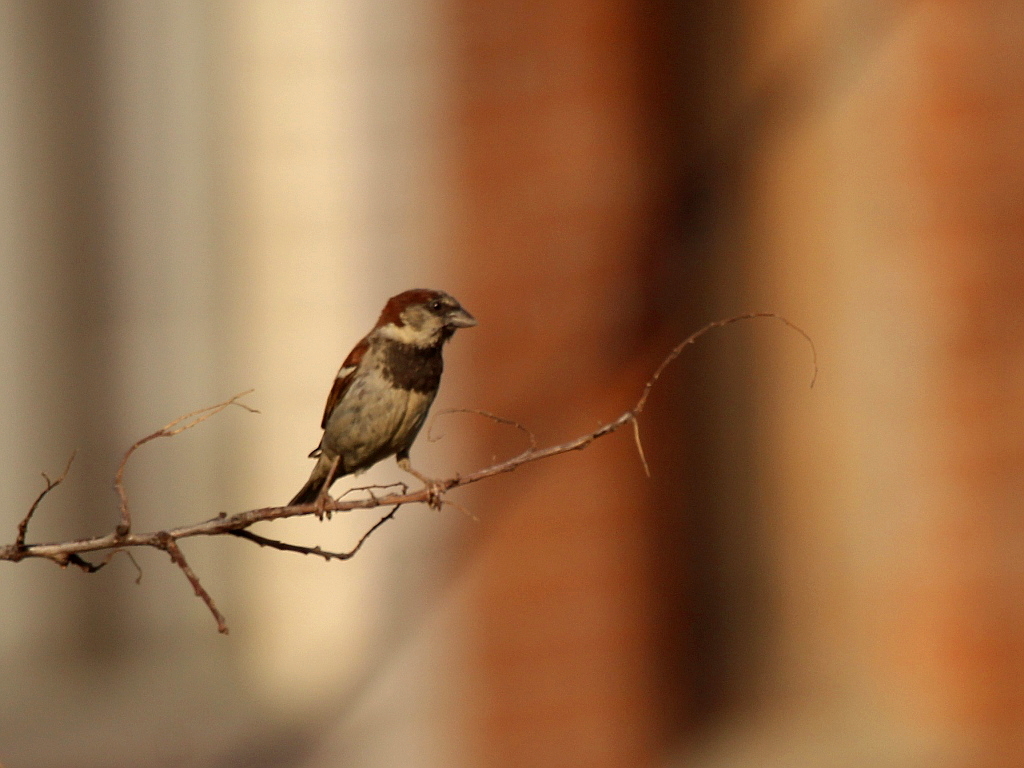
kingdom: Animalia
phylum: Chordata
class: Aves
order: Passeriformes
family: Passeridae
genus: Passer
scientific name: Passer domesticus
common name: House sparrow
